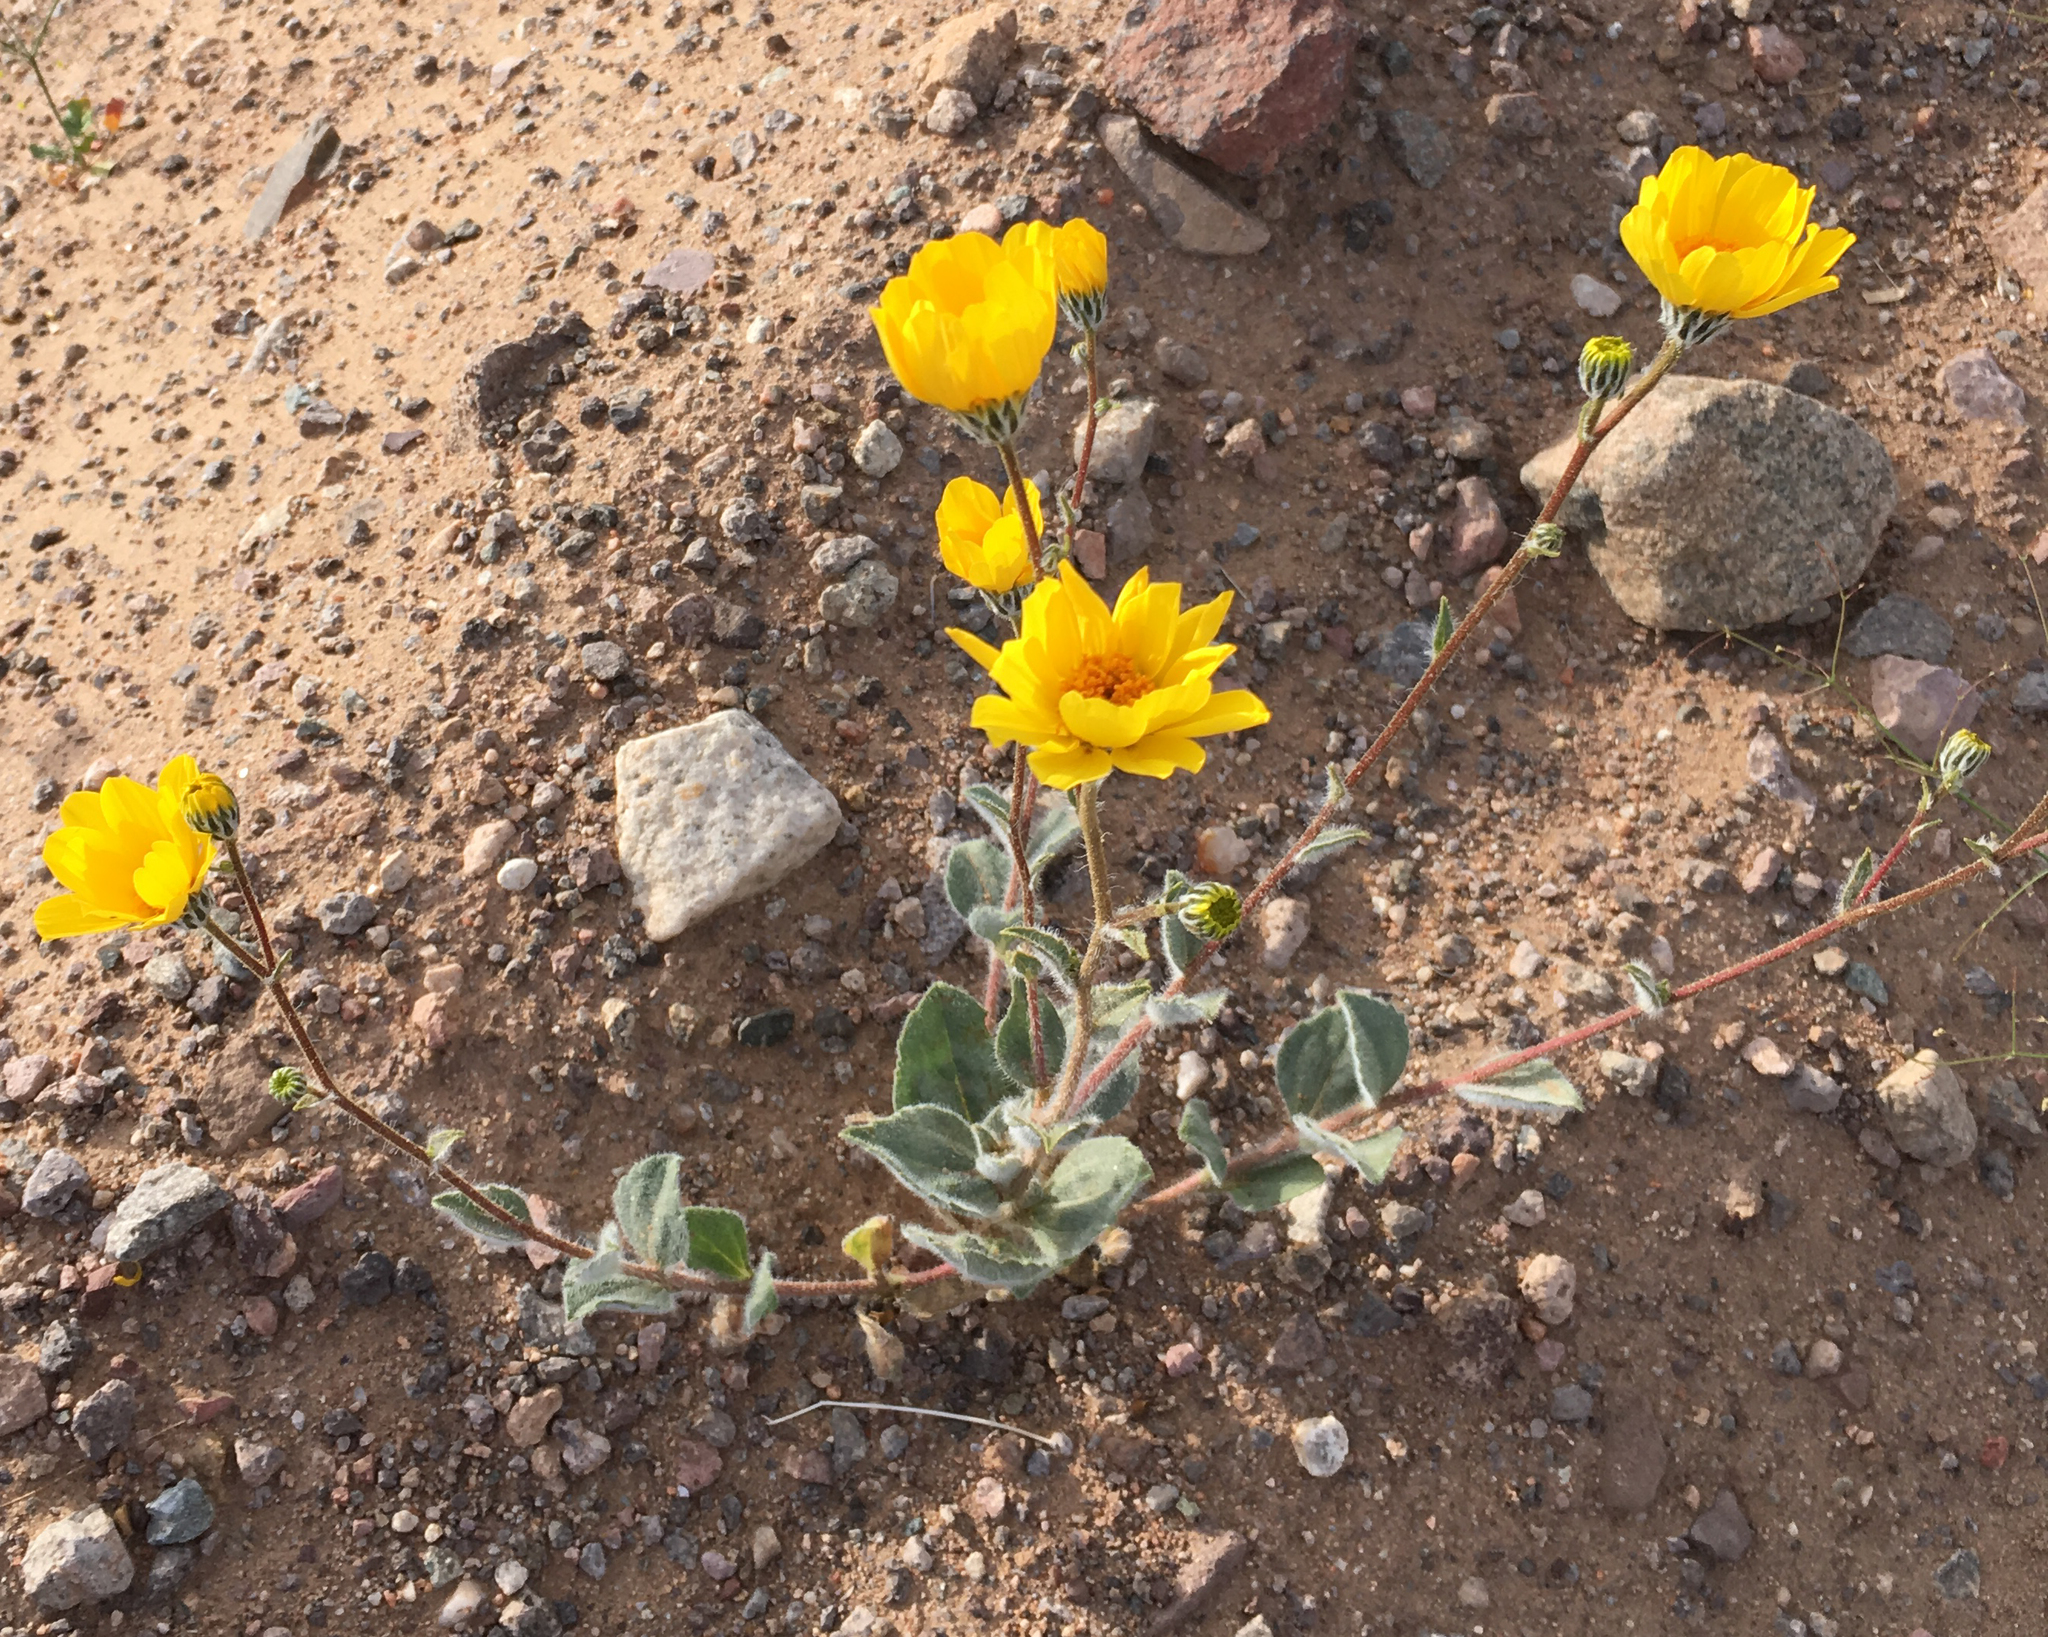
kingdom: Plantae
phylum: Tracheophyta
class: Magnoliopsida
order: Asterales
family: Asteraceae
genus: Geraea
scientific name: Geraea canescens
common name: Desert-gold
